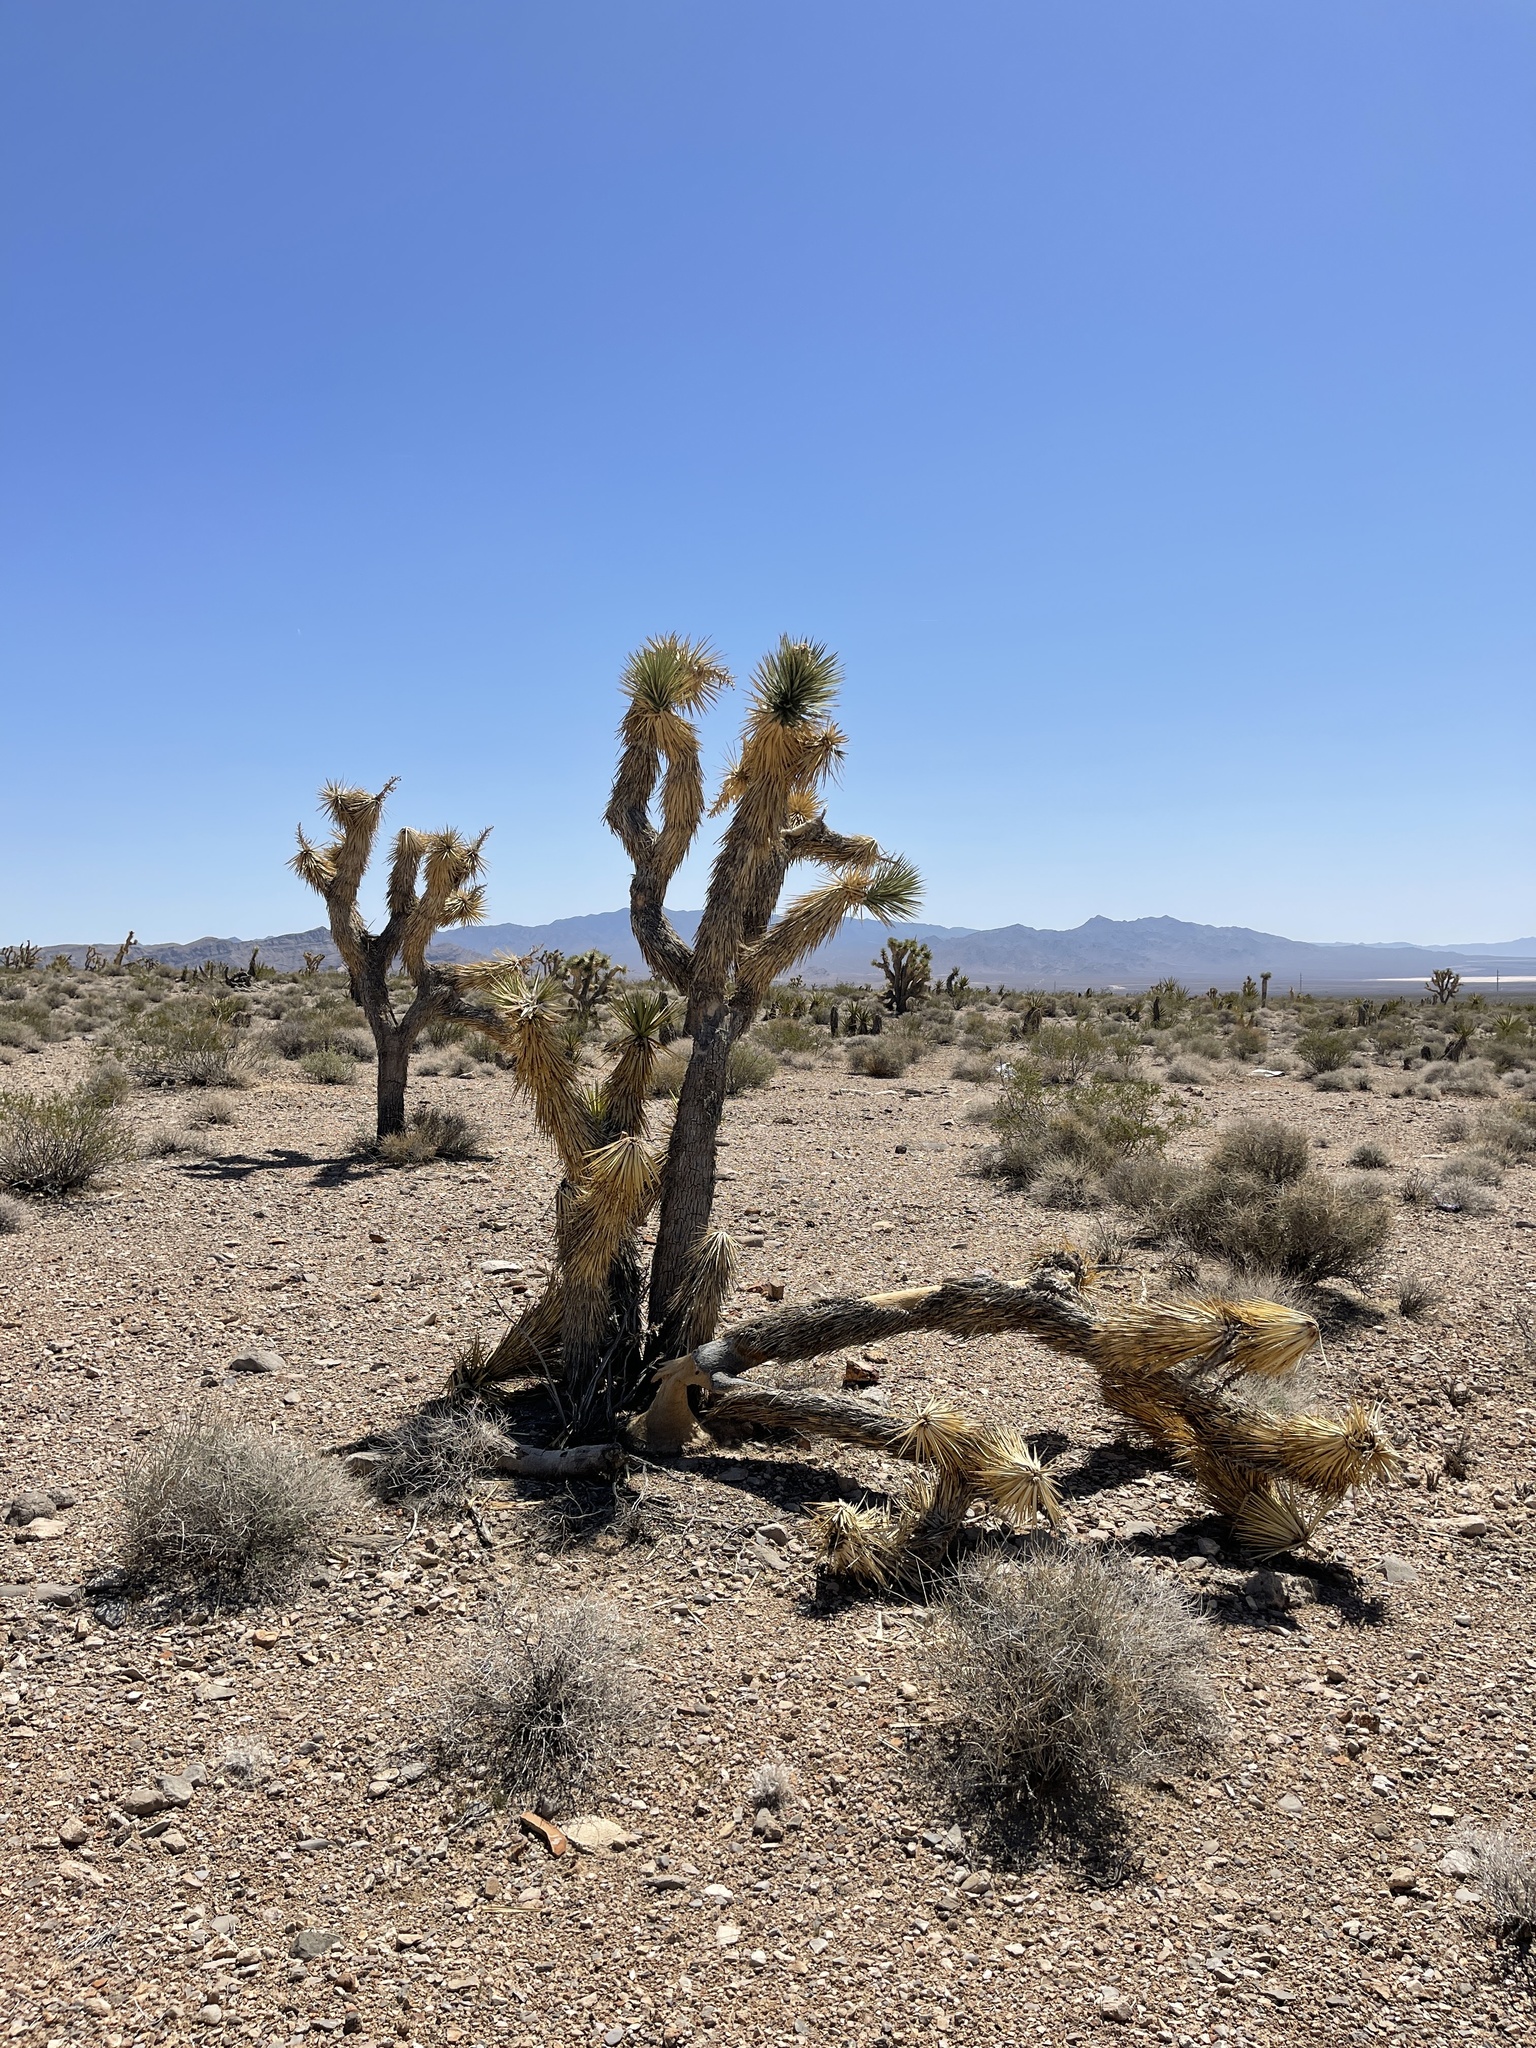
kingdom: Plantae
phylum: Tracheophyta
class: Liliopsida
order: Asparagales
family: Asparagaceae
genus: Yucca
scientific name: Yucca brevifolia
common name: Joshua tree
